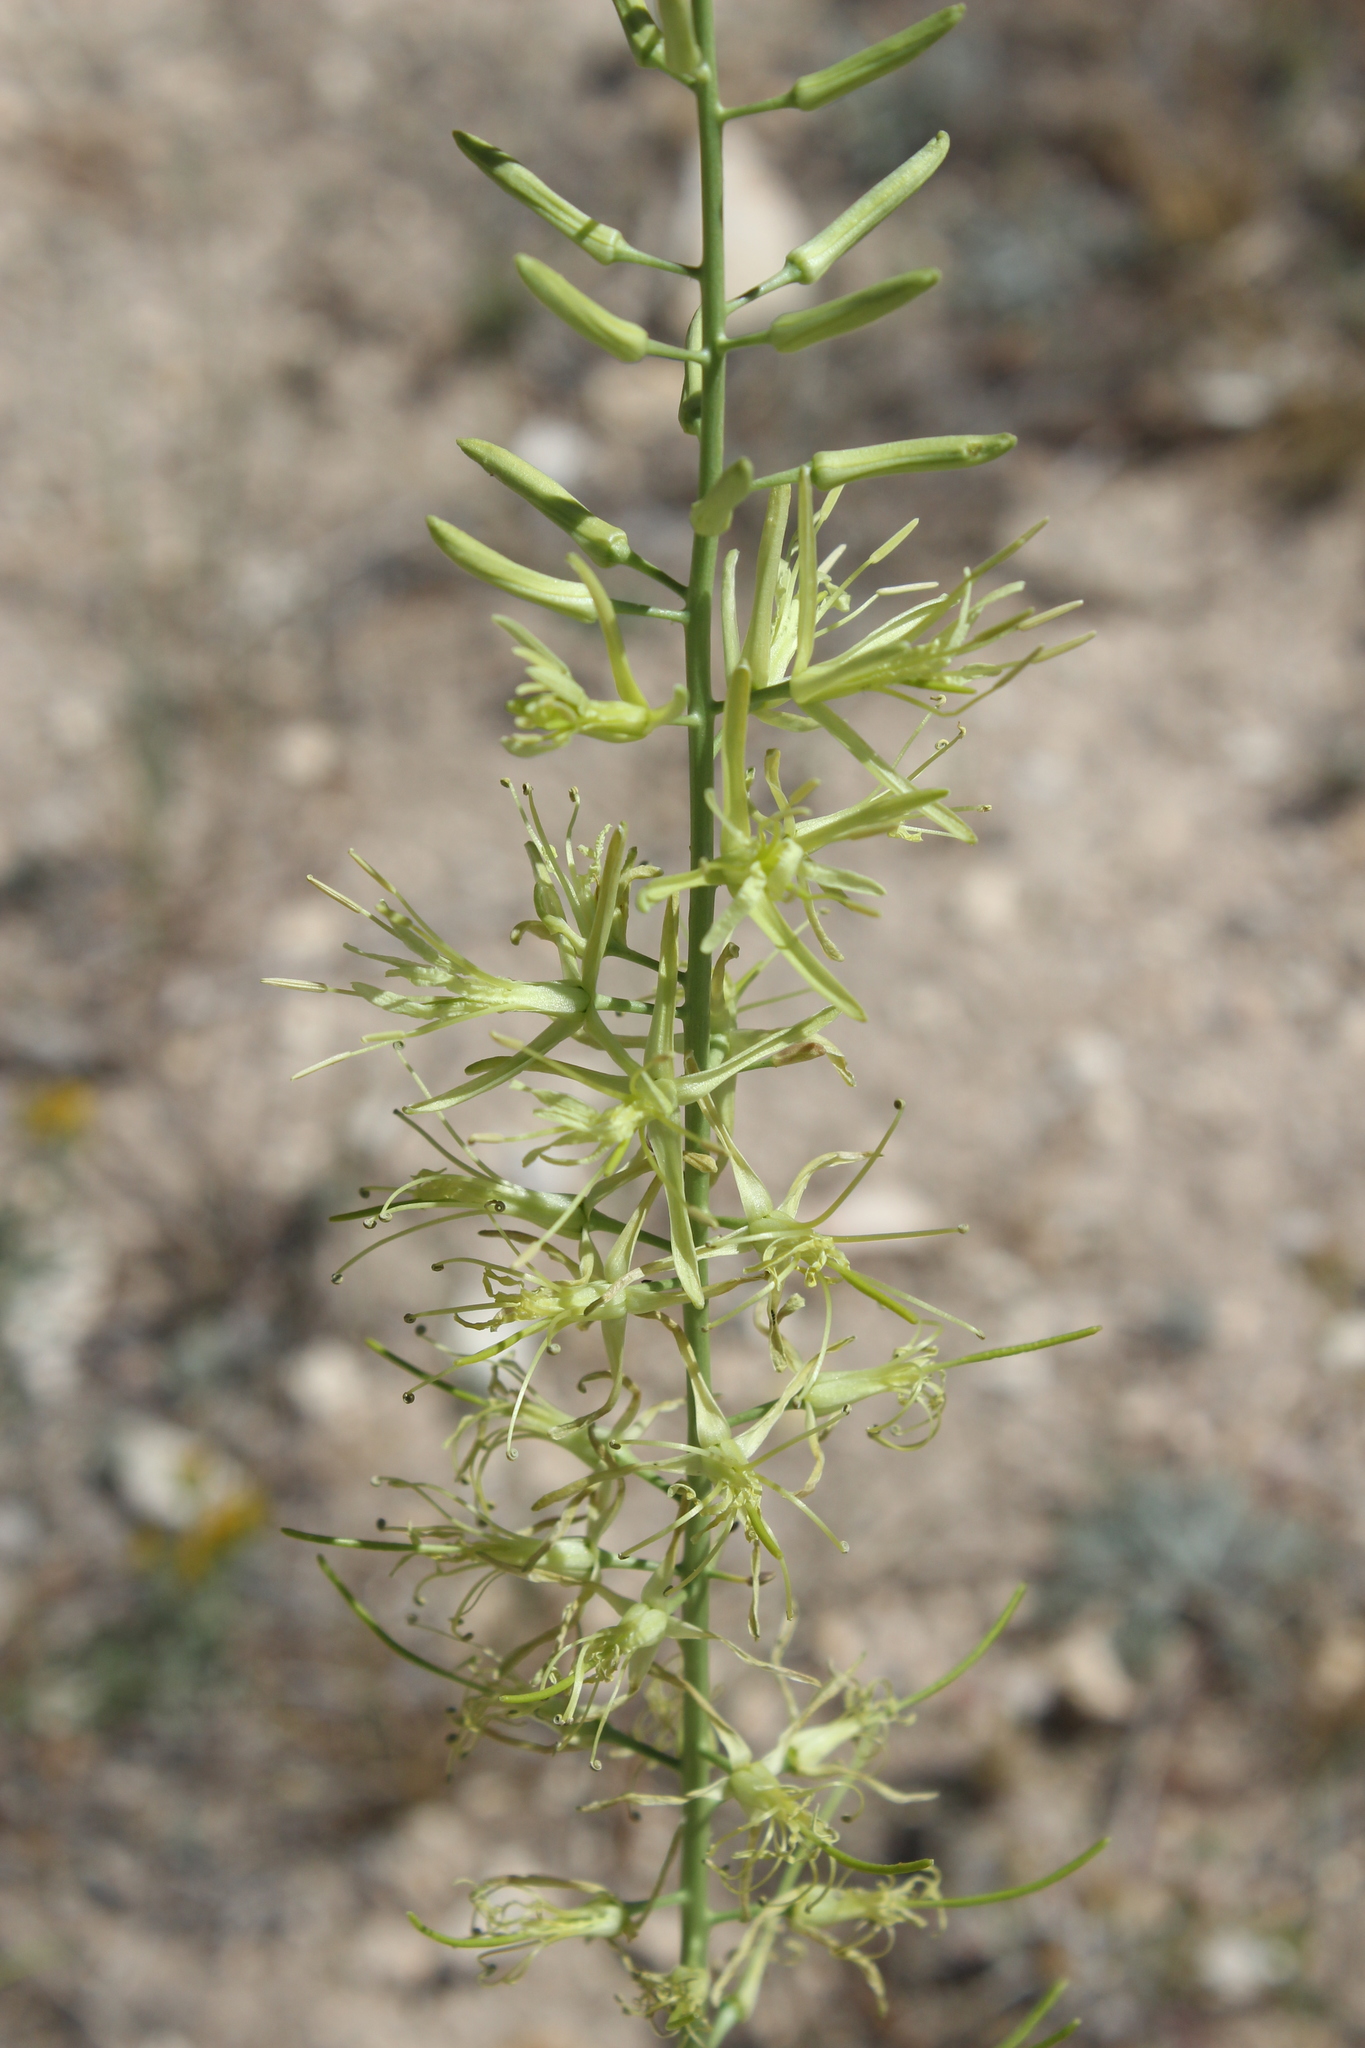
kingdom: Plantae
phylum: Tracheophyta
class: Magnoliopsida
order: Brassicales
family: Brassicaceae
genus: Stanleya
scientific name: Stanleya viridiflora
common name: Desert plume
